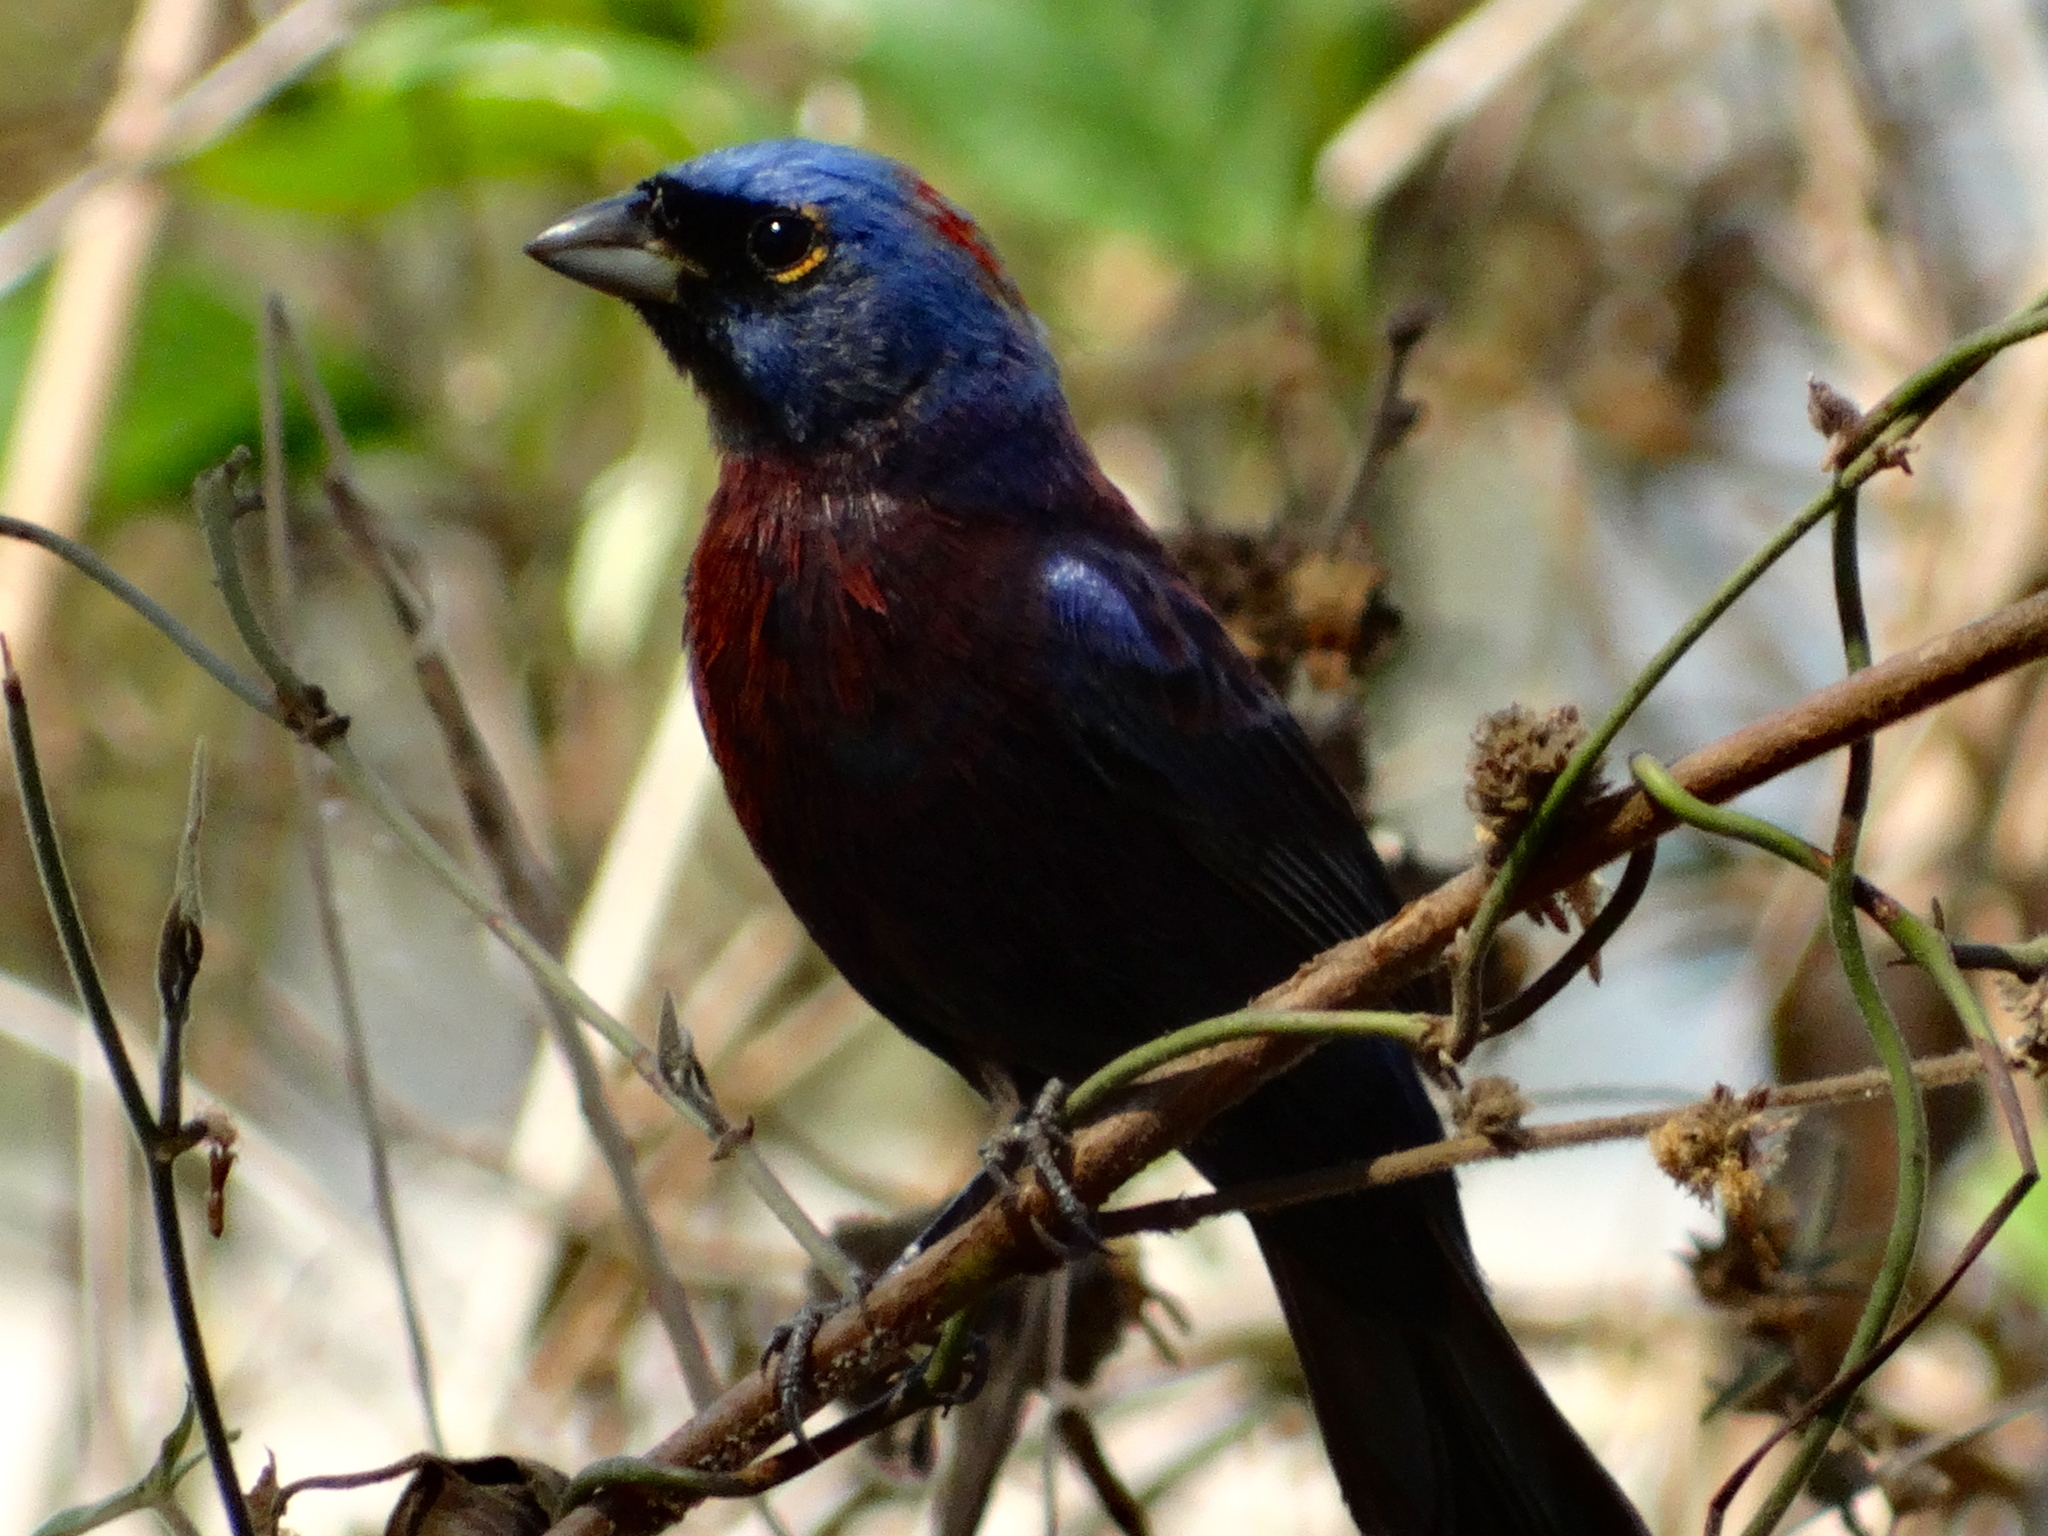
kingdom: Animalia
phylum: Chordata
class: Aves
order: Passeriformes
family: Cardinalidae
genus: Passerina
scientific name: Passerina versicolor
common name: Varied bunting
